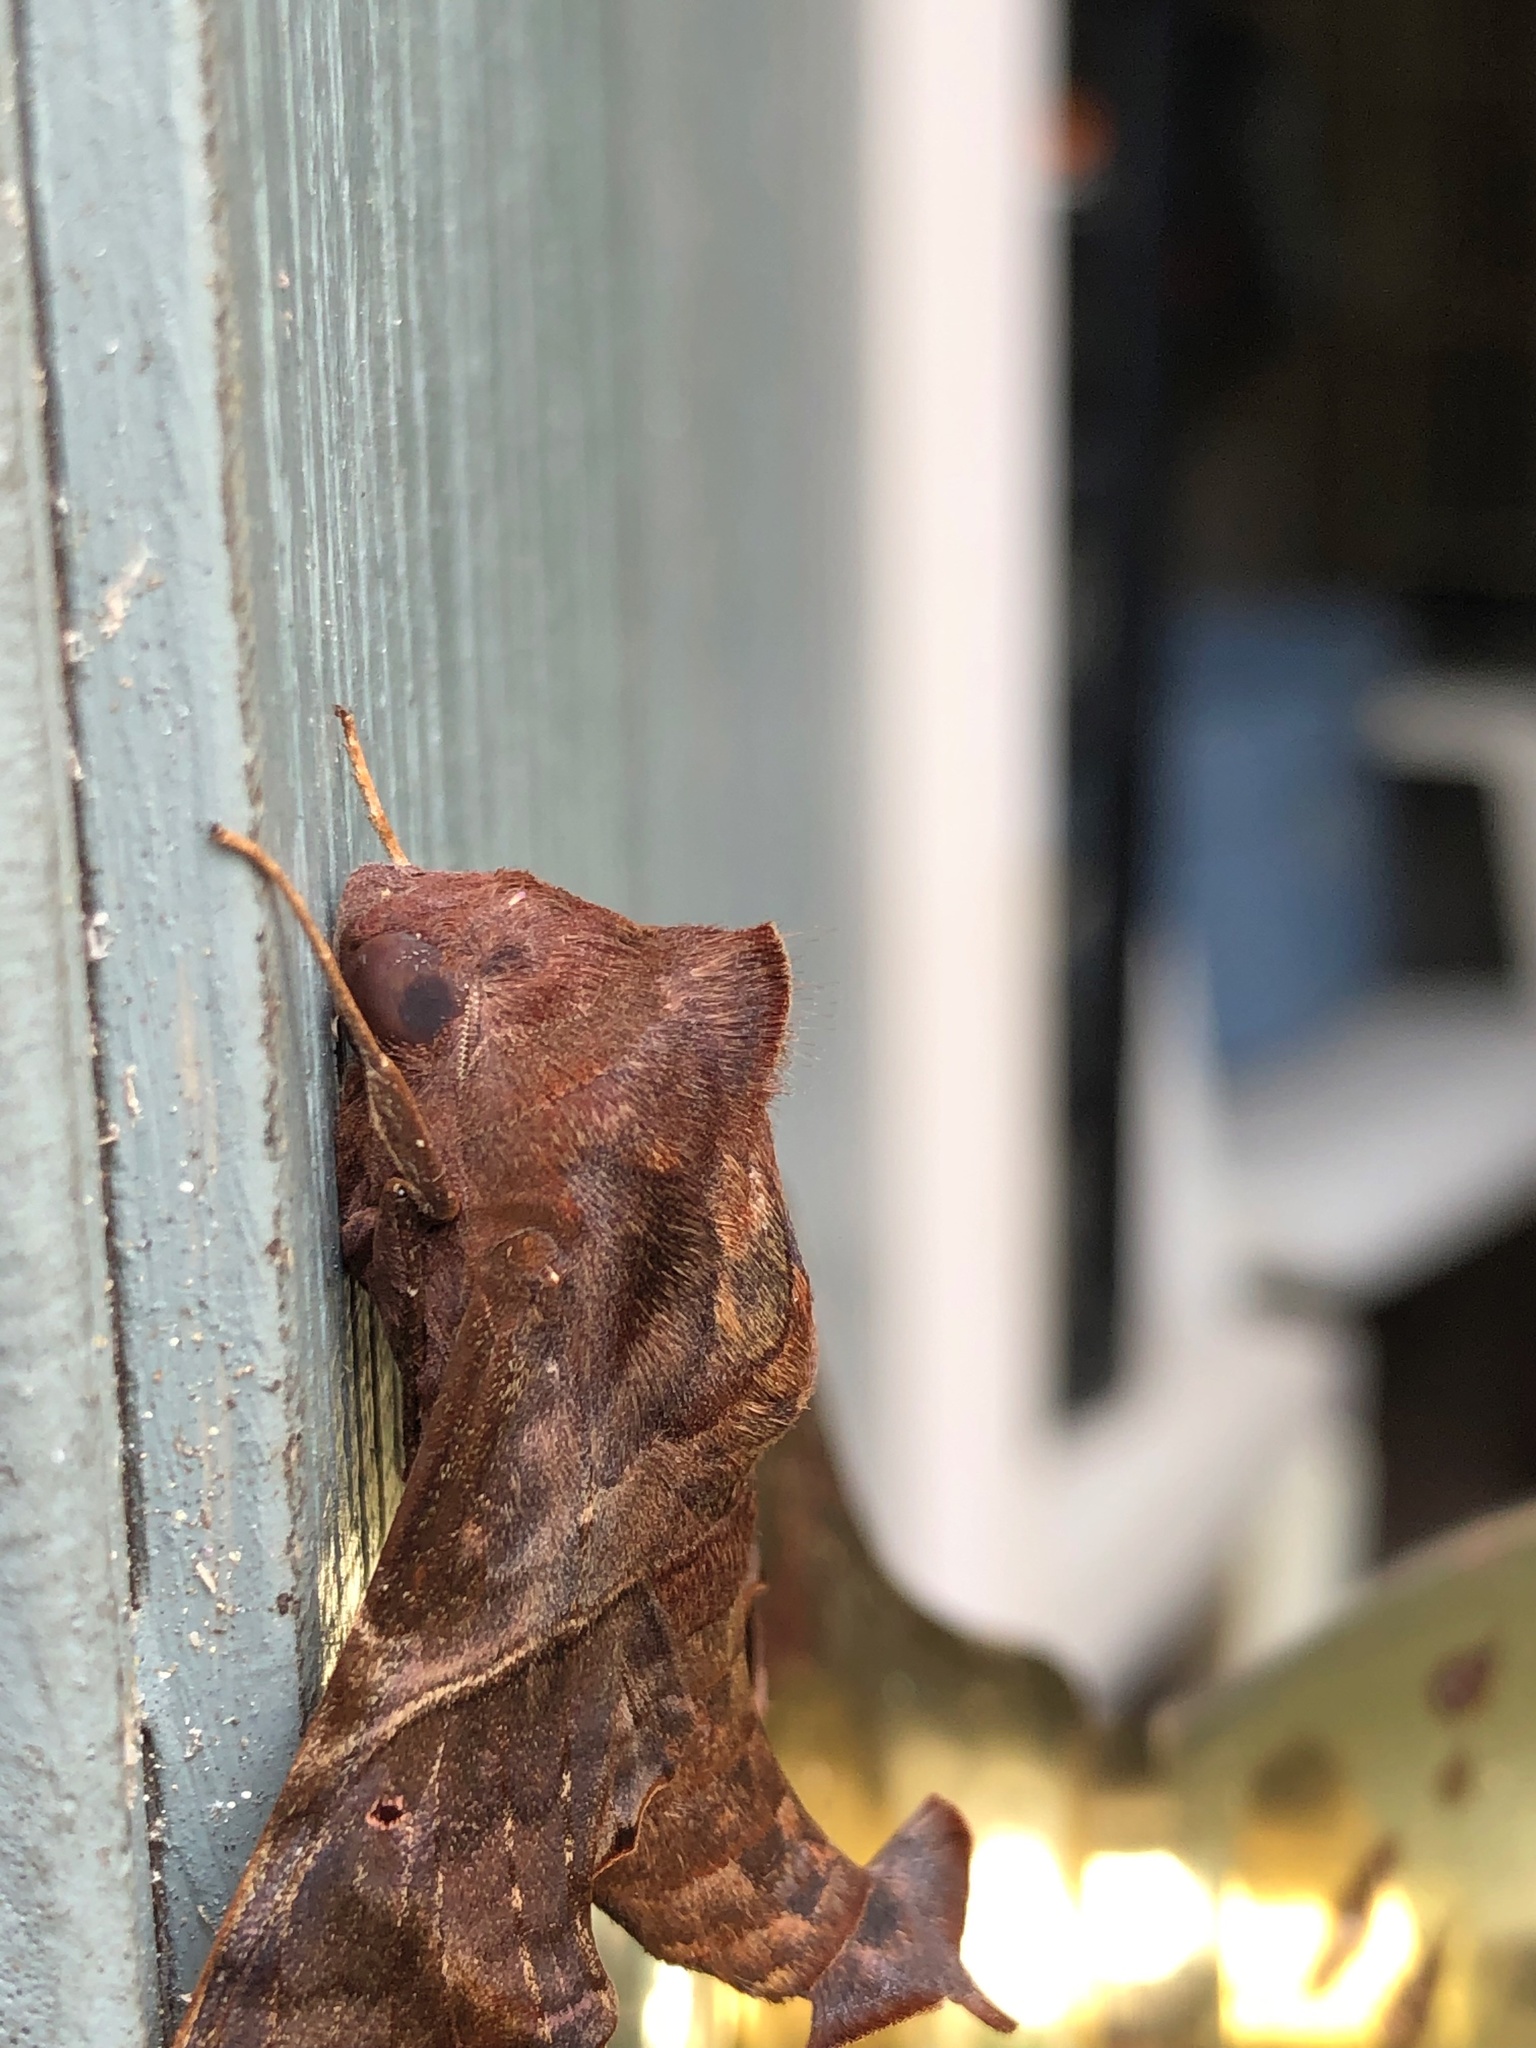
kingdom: Animalia
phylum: Arthropoda
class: Insecta
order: Lepidoptera
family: Sphingidae
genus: Enyo
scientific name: Enyo lugubris
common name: Mournful sphinx
